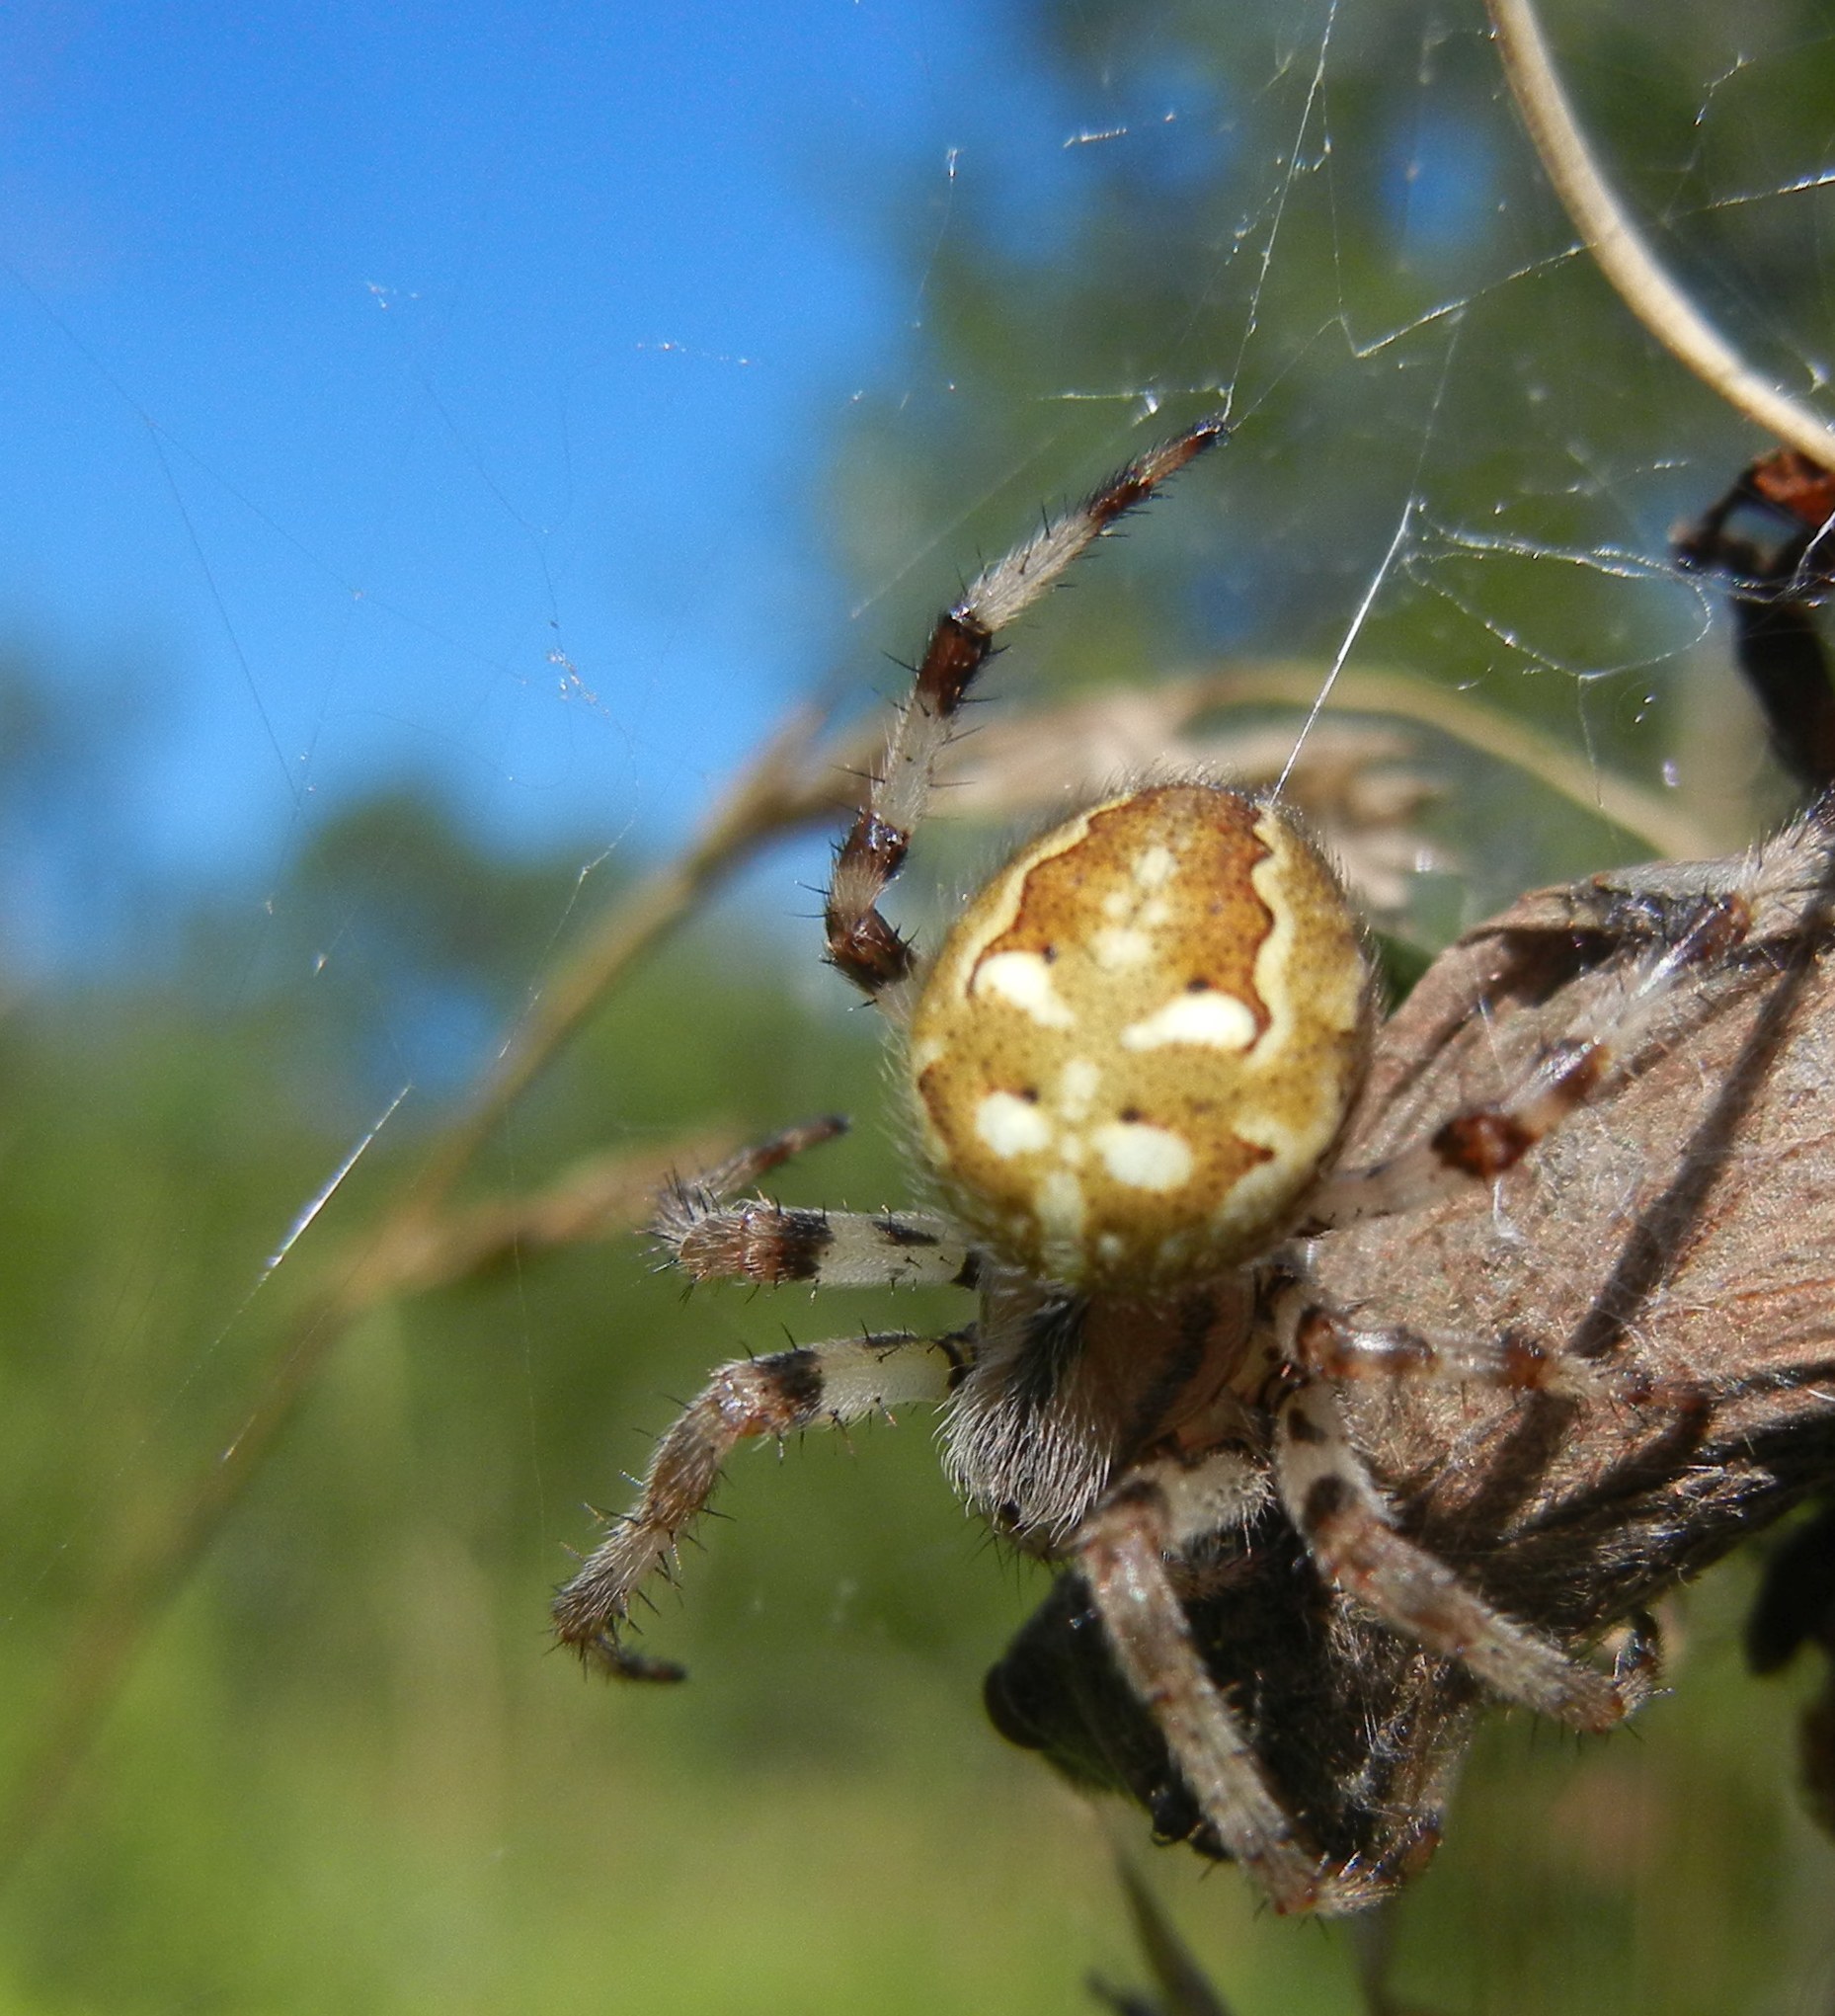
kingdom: Animalia
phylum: Arthropoda
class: Arachnida
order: Araneae
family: Araneidae
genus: Araneus
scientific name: Araneus quadratus
